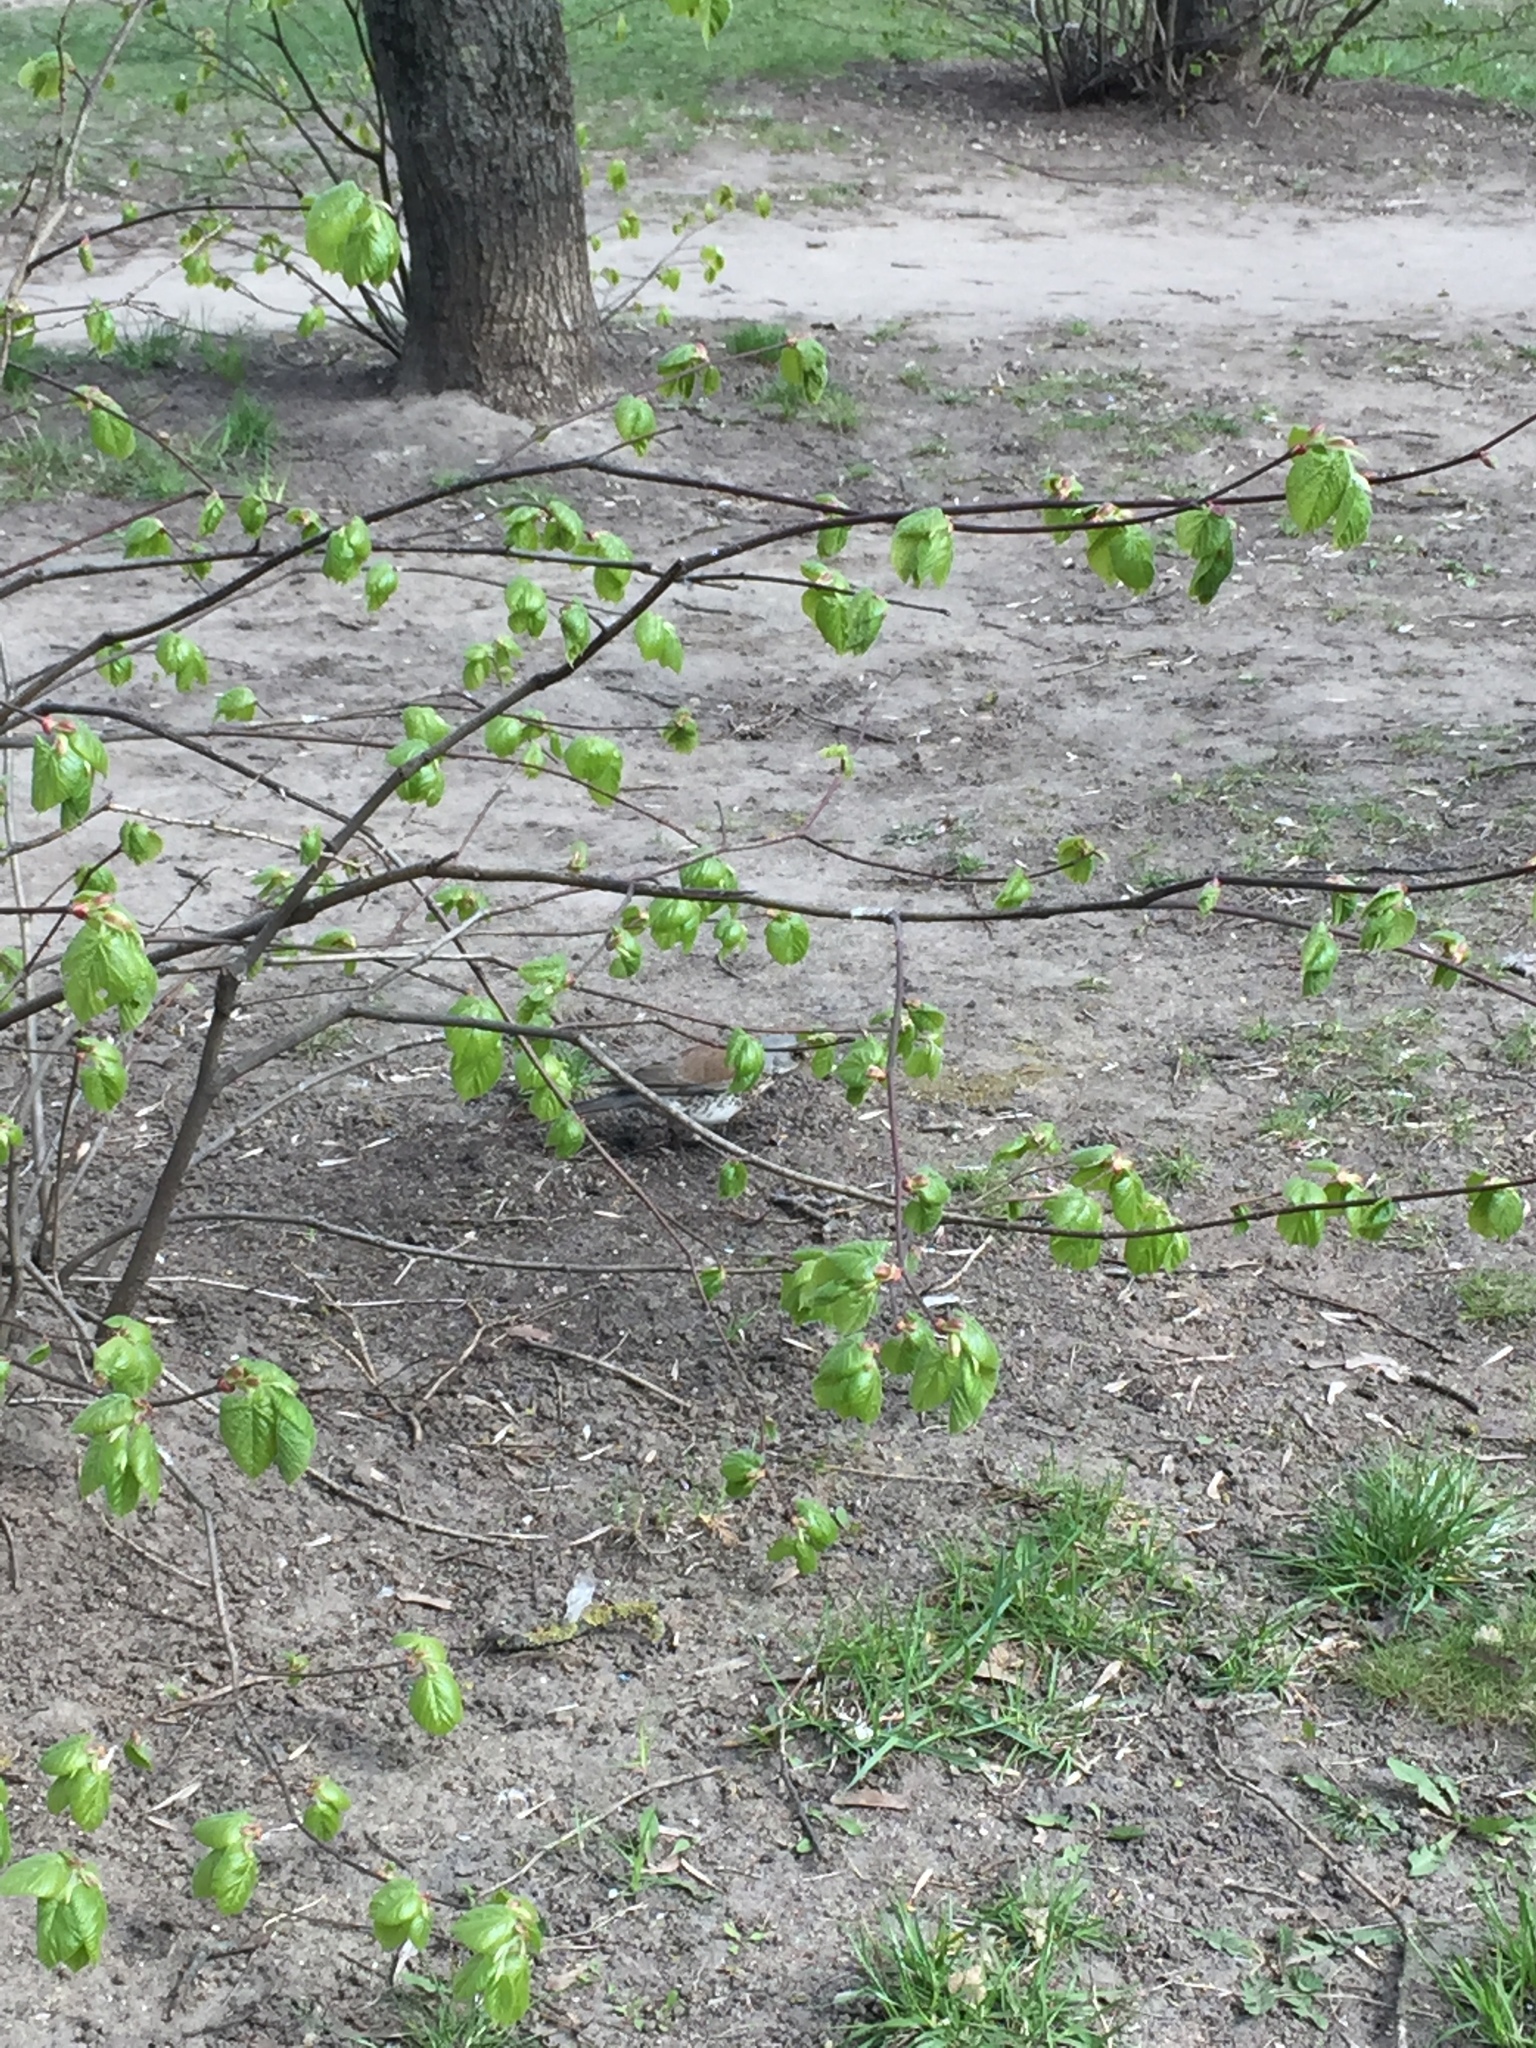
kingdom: Animalia
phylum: Chordata
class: Aves
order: Passeriformes
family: Turdidae
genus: Turdus
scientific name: Turdus pilaris
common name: Fieldfare
